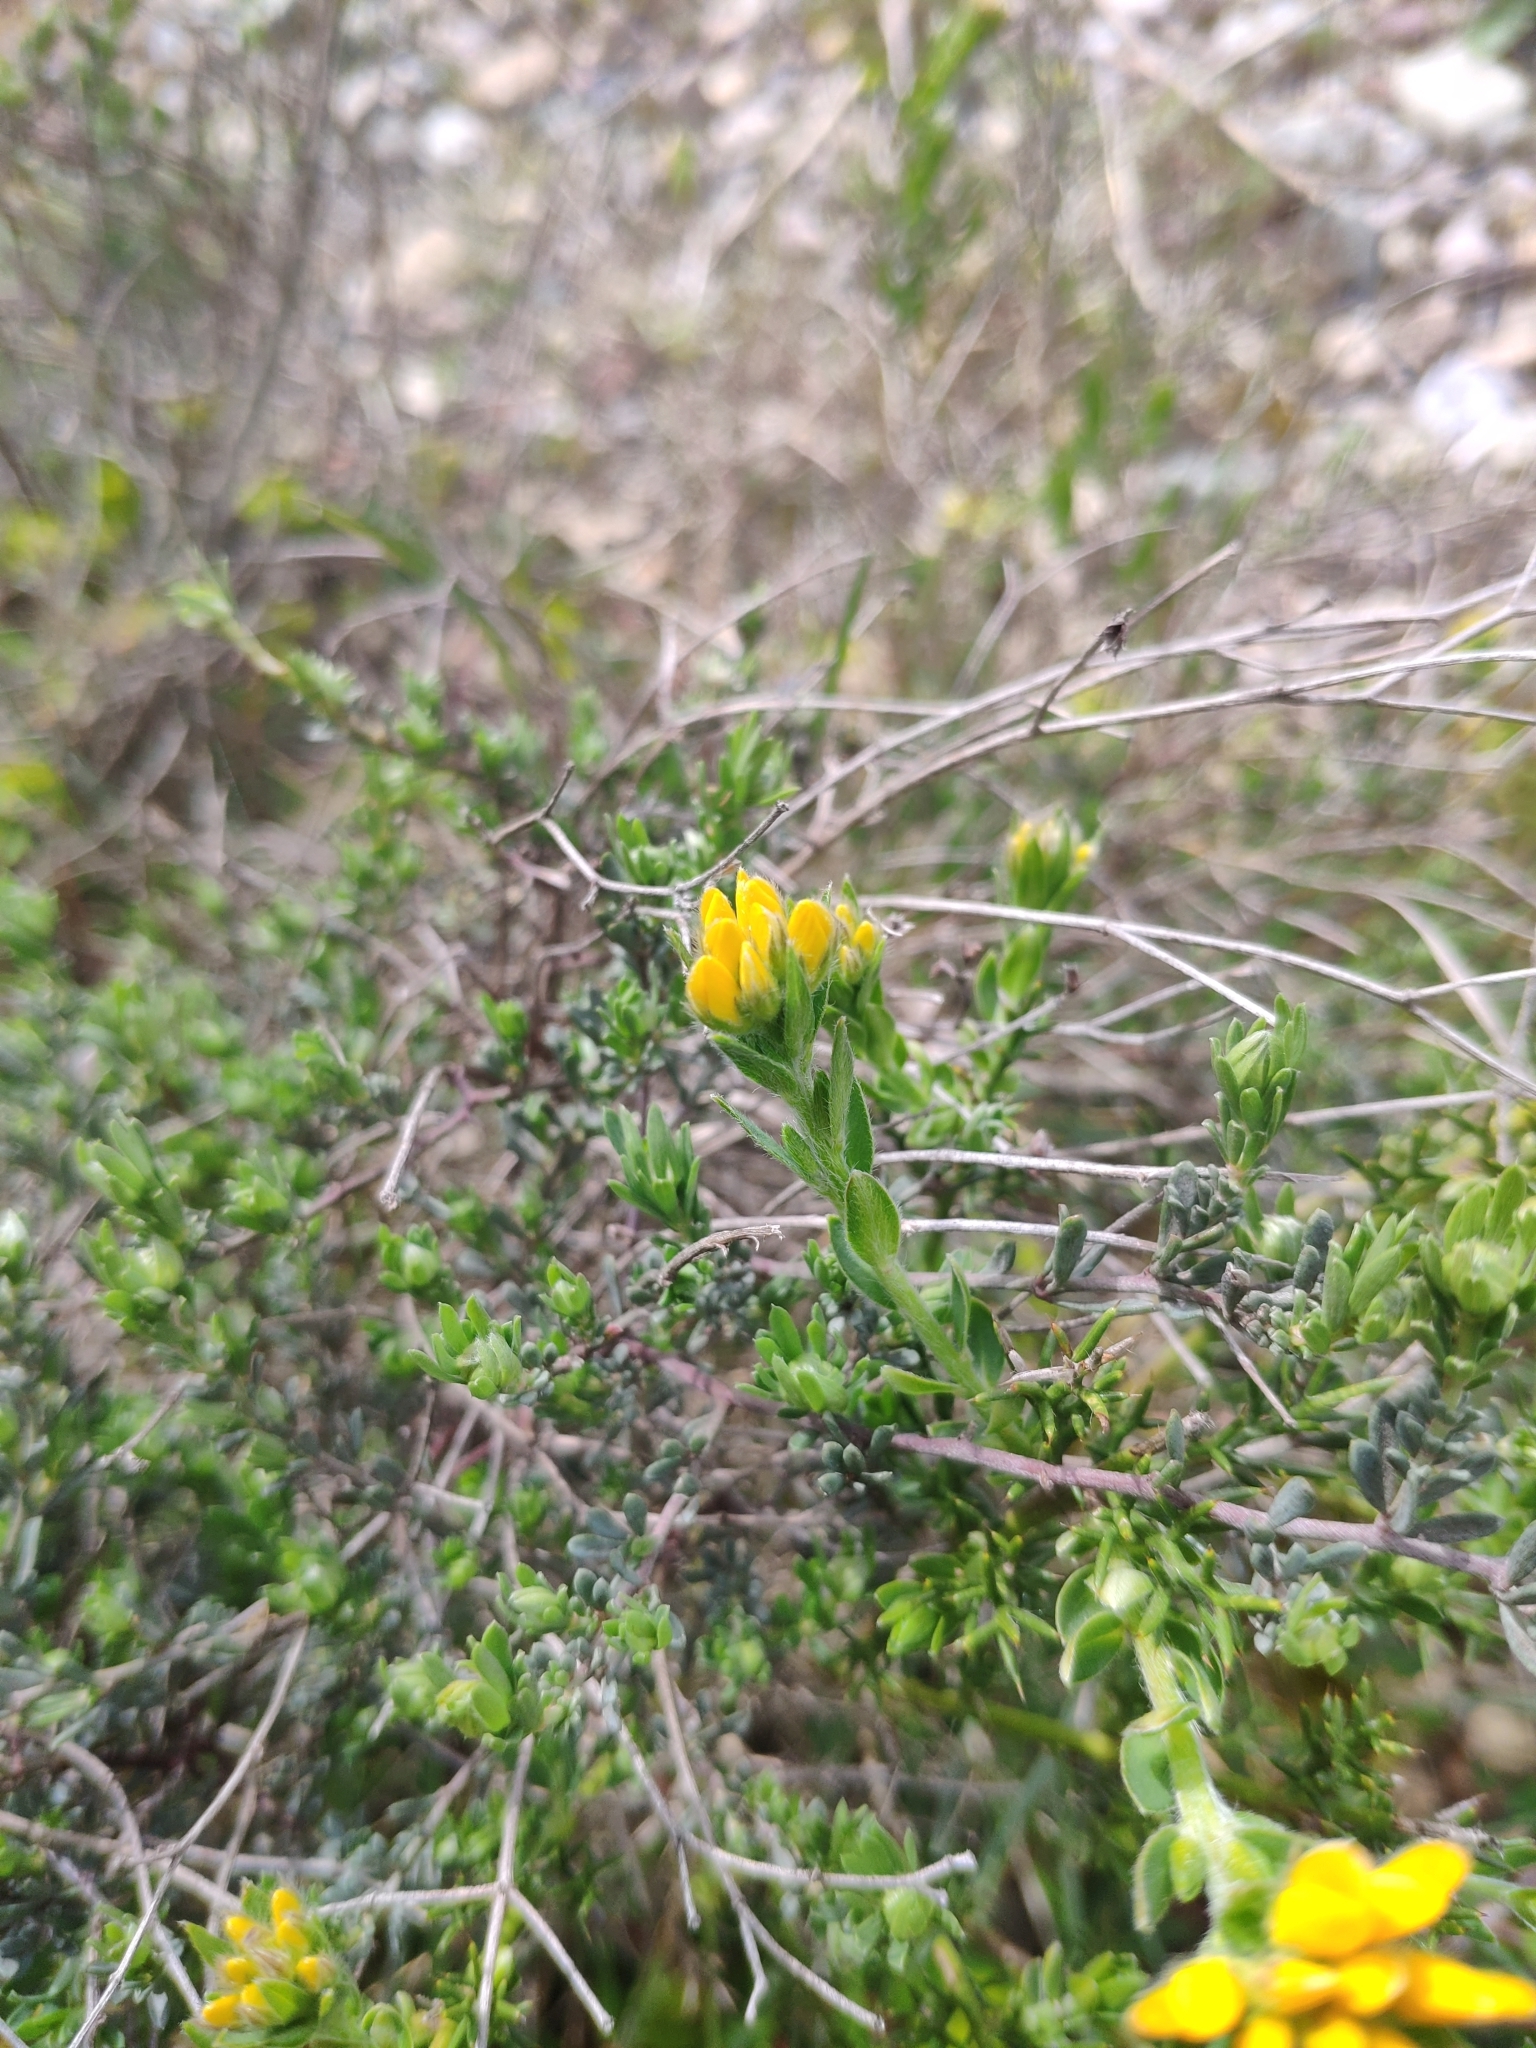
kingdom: Plantae
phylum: Tracheophyta
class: Magnoliopsida
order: Fabales
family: Fabaceae
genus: Genista
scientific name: Genista hispanica
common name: Spanish gorse
